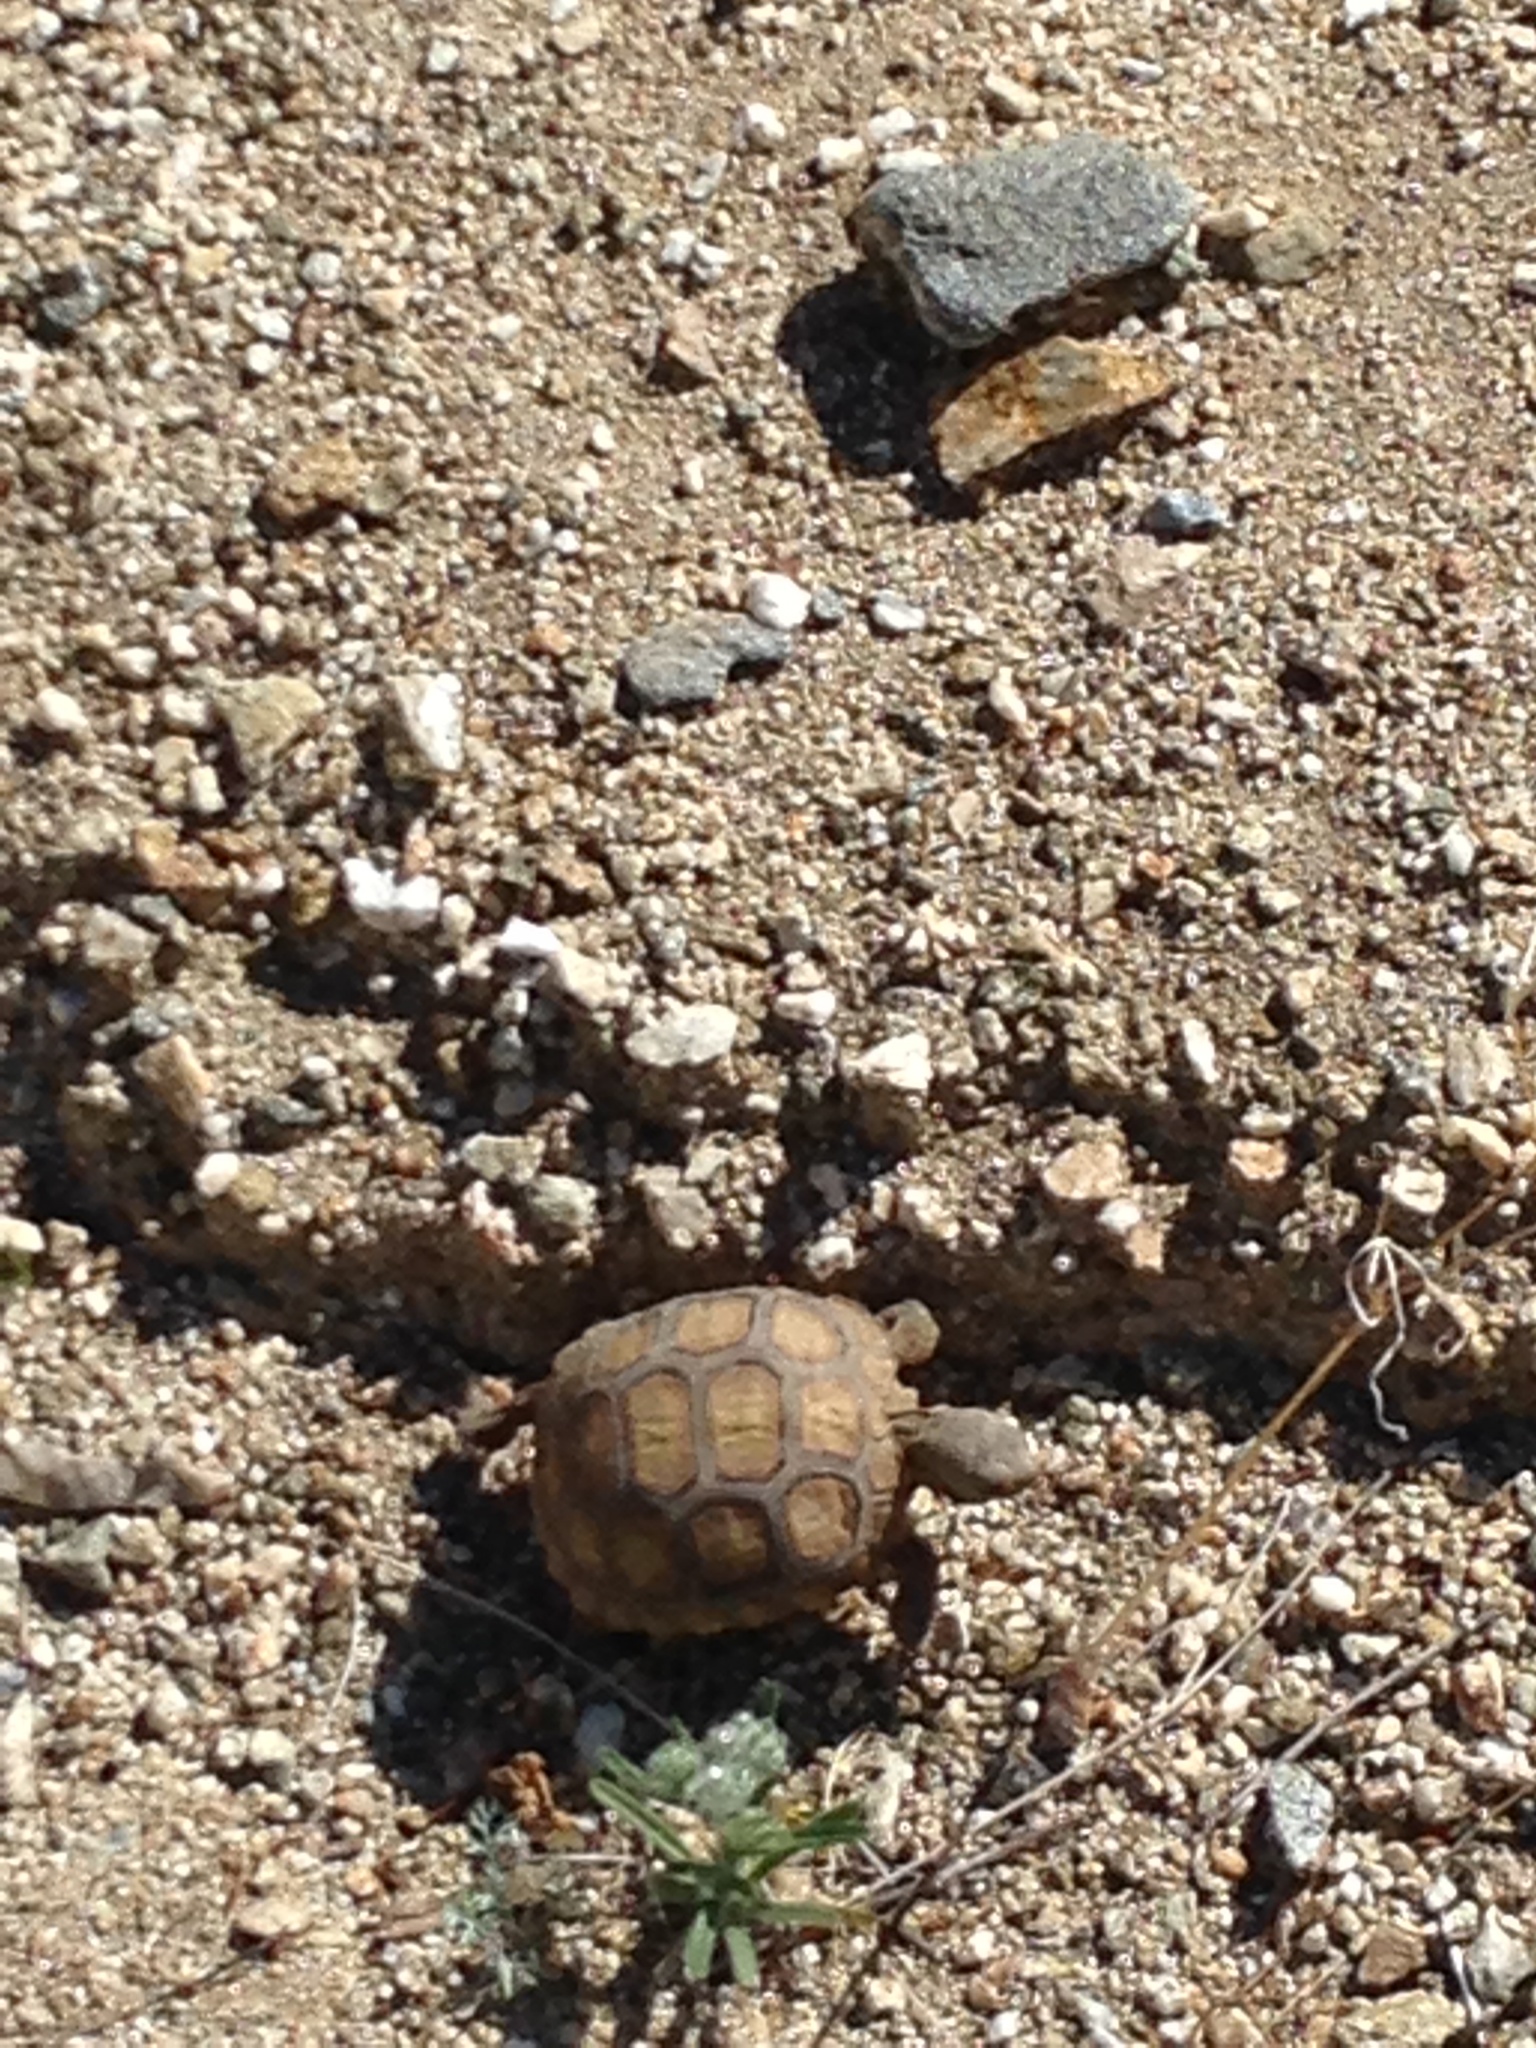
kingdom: Animalia
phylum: Chordata
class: Testudines
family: Testudinidae
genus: Gopherus
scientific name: Gopherus agassizii
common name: Mojave desert tortoise
